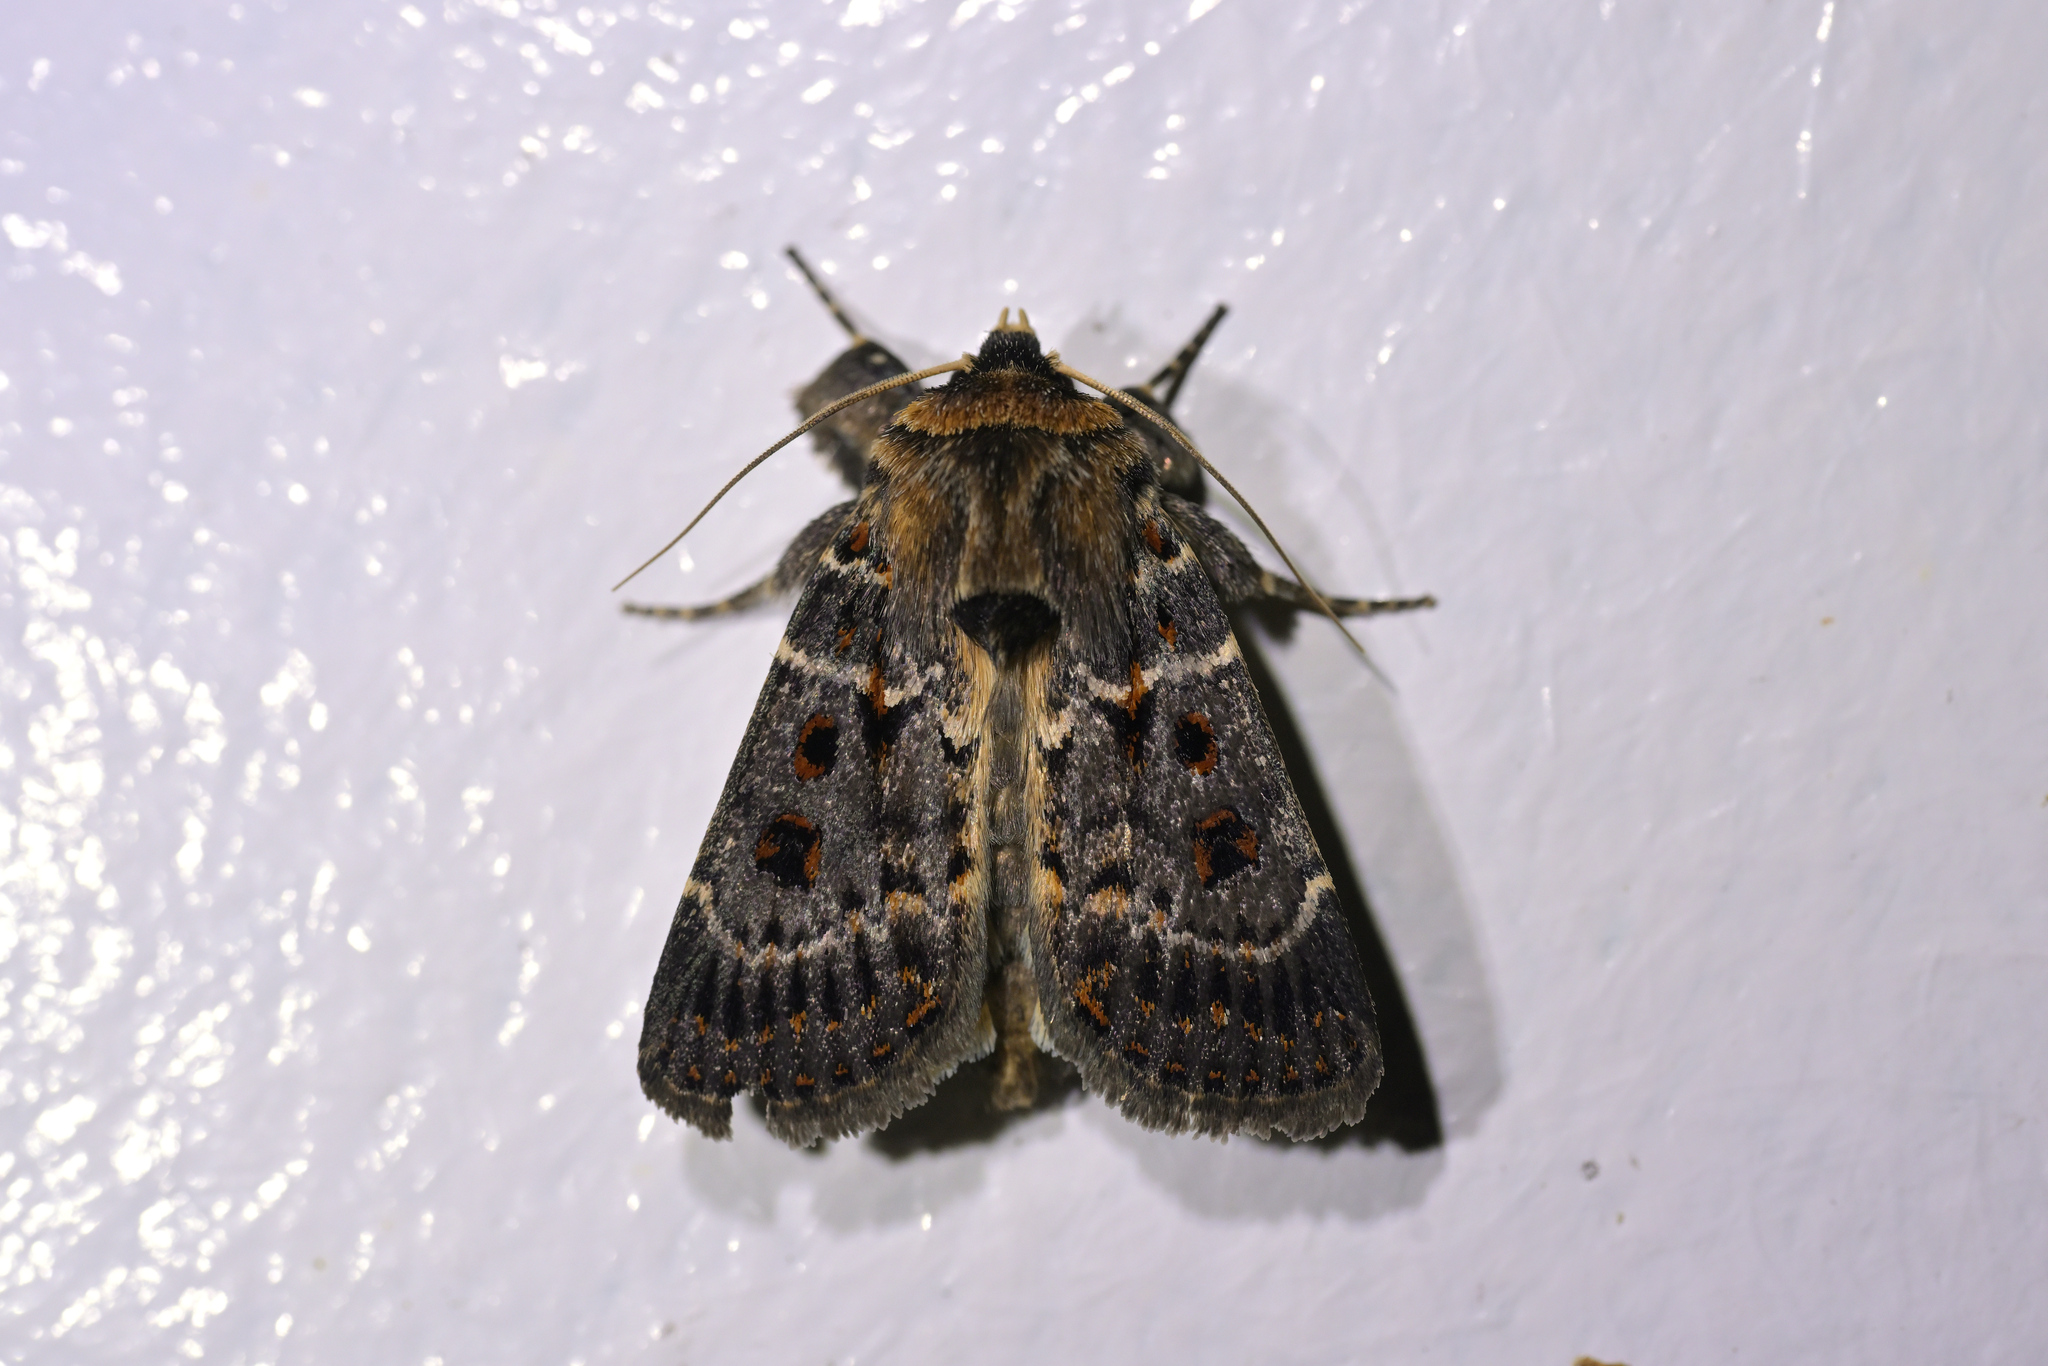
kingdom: Animalia
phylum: Arthropoda
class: Insecta
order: Lepidoptera
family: Noctuidae
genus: Proteuxoa
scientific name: Proteuxoa sanguinipuncta
